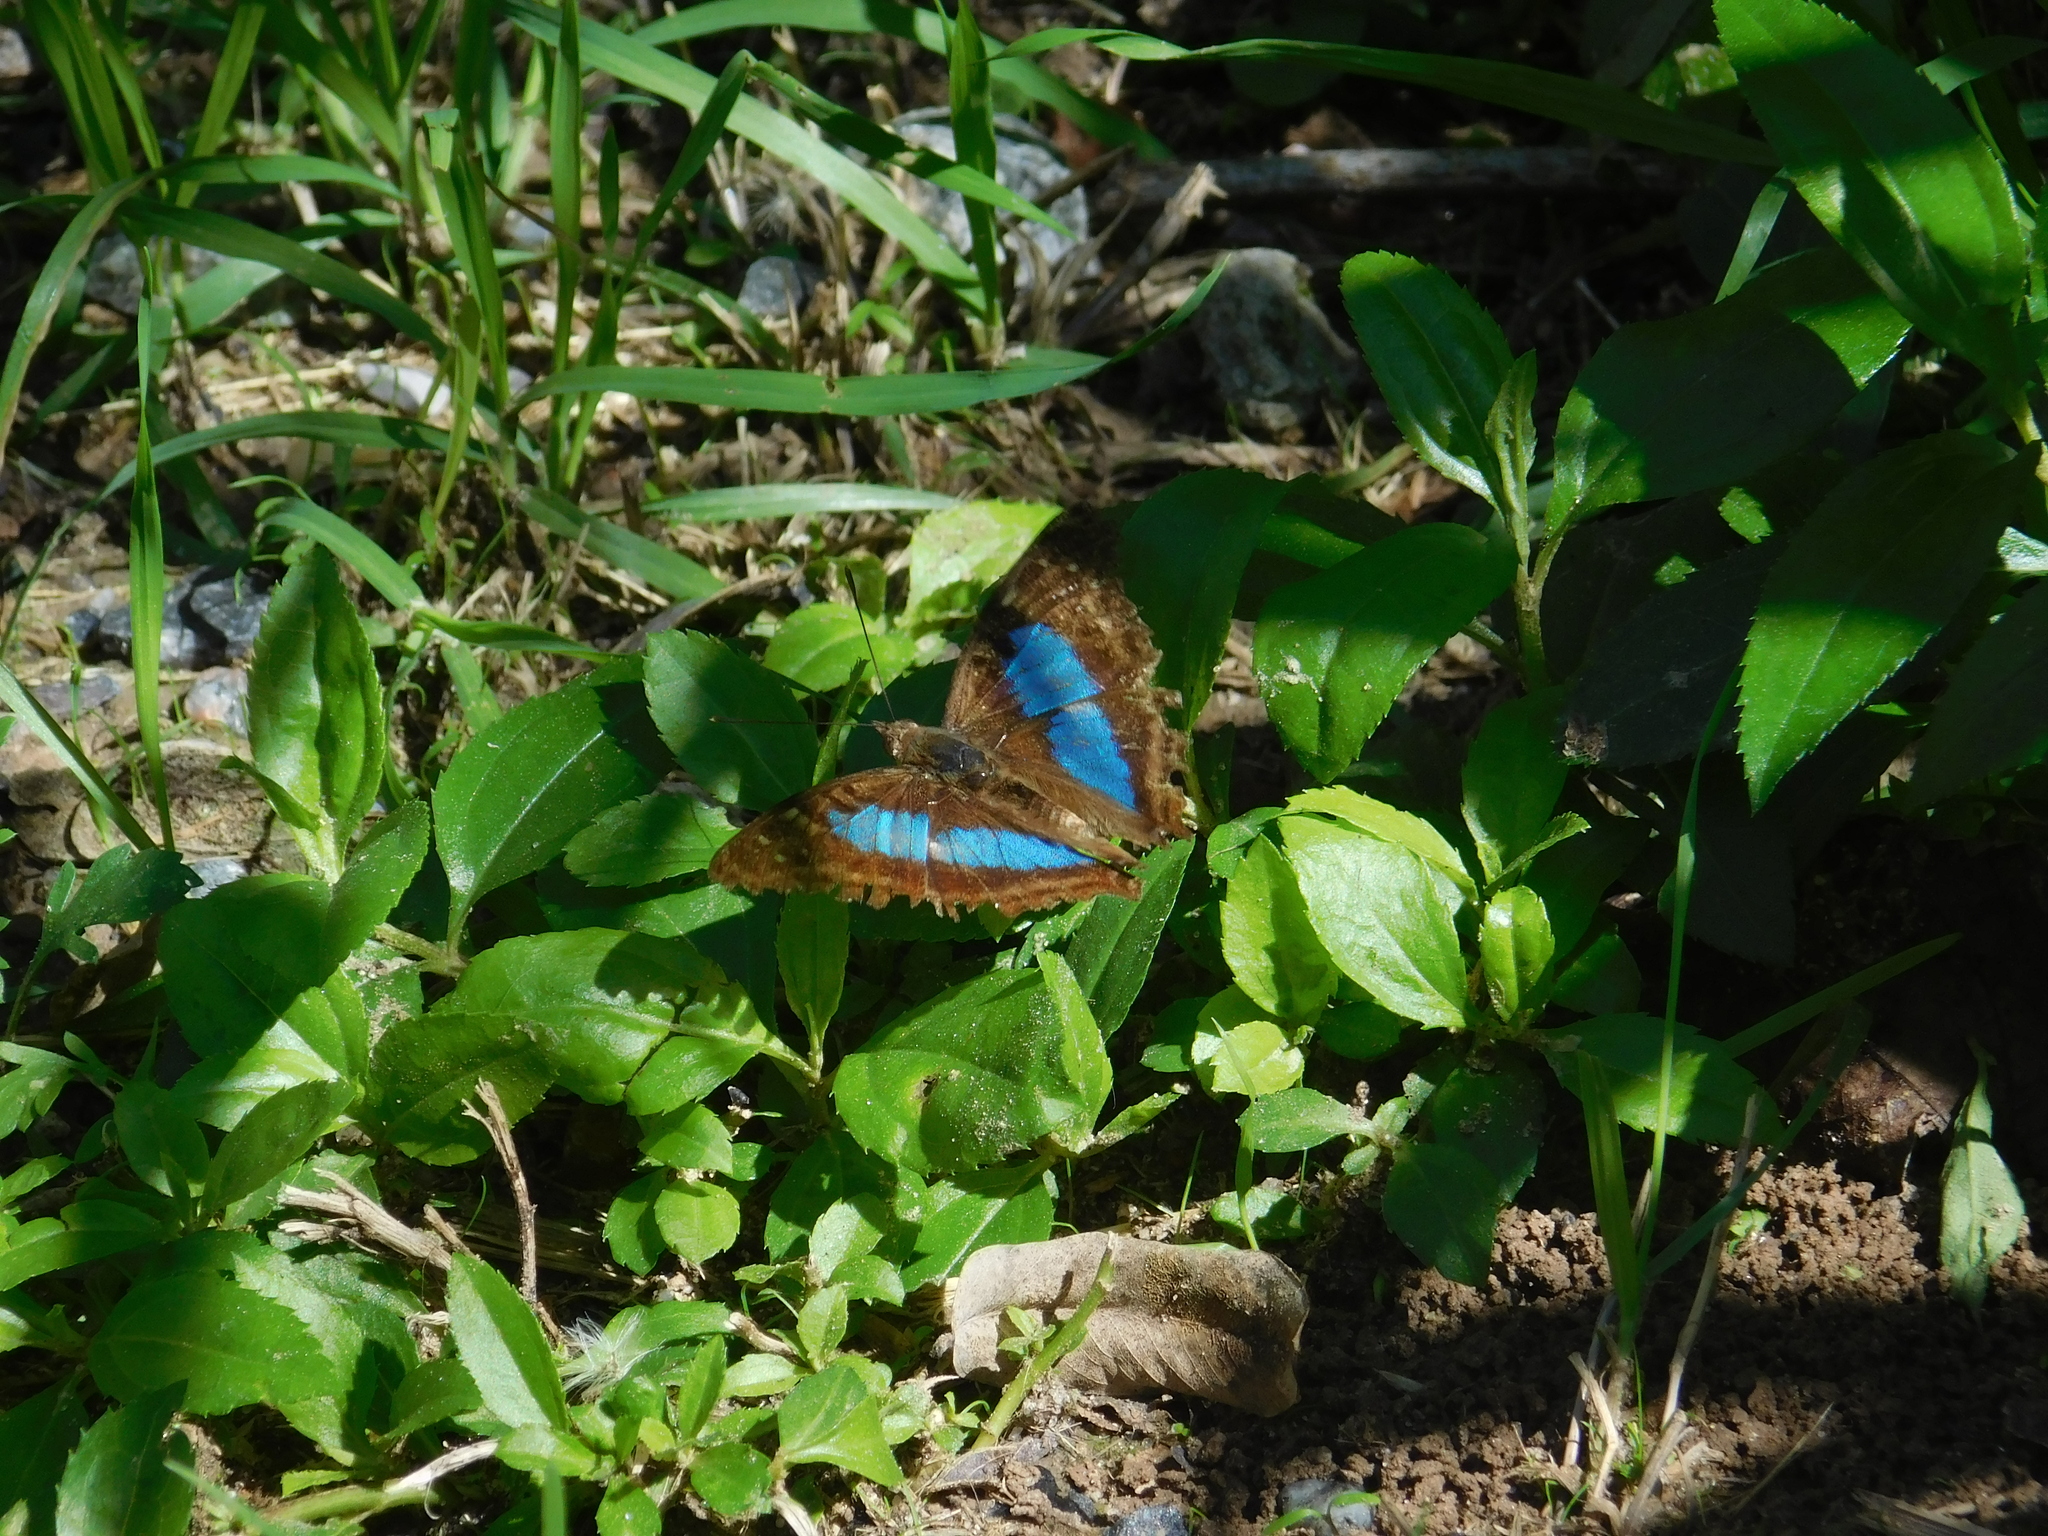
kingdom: Animalia
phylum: Arthropoda
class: Insecta
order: Lepidoptera
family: Nymphalidae
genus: Doxocopa
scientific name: Doxocopa laurentia
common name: Turquoise emperor
